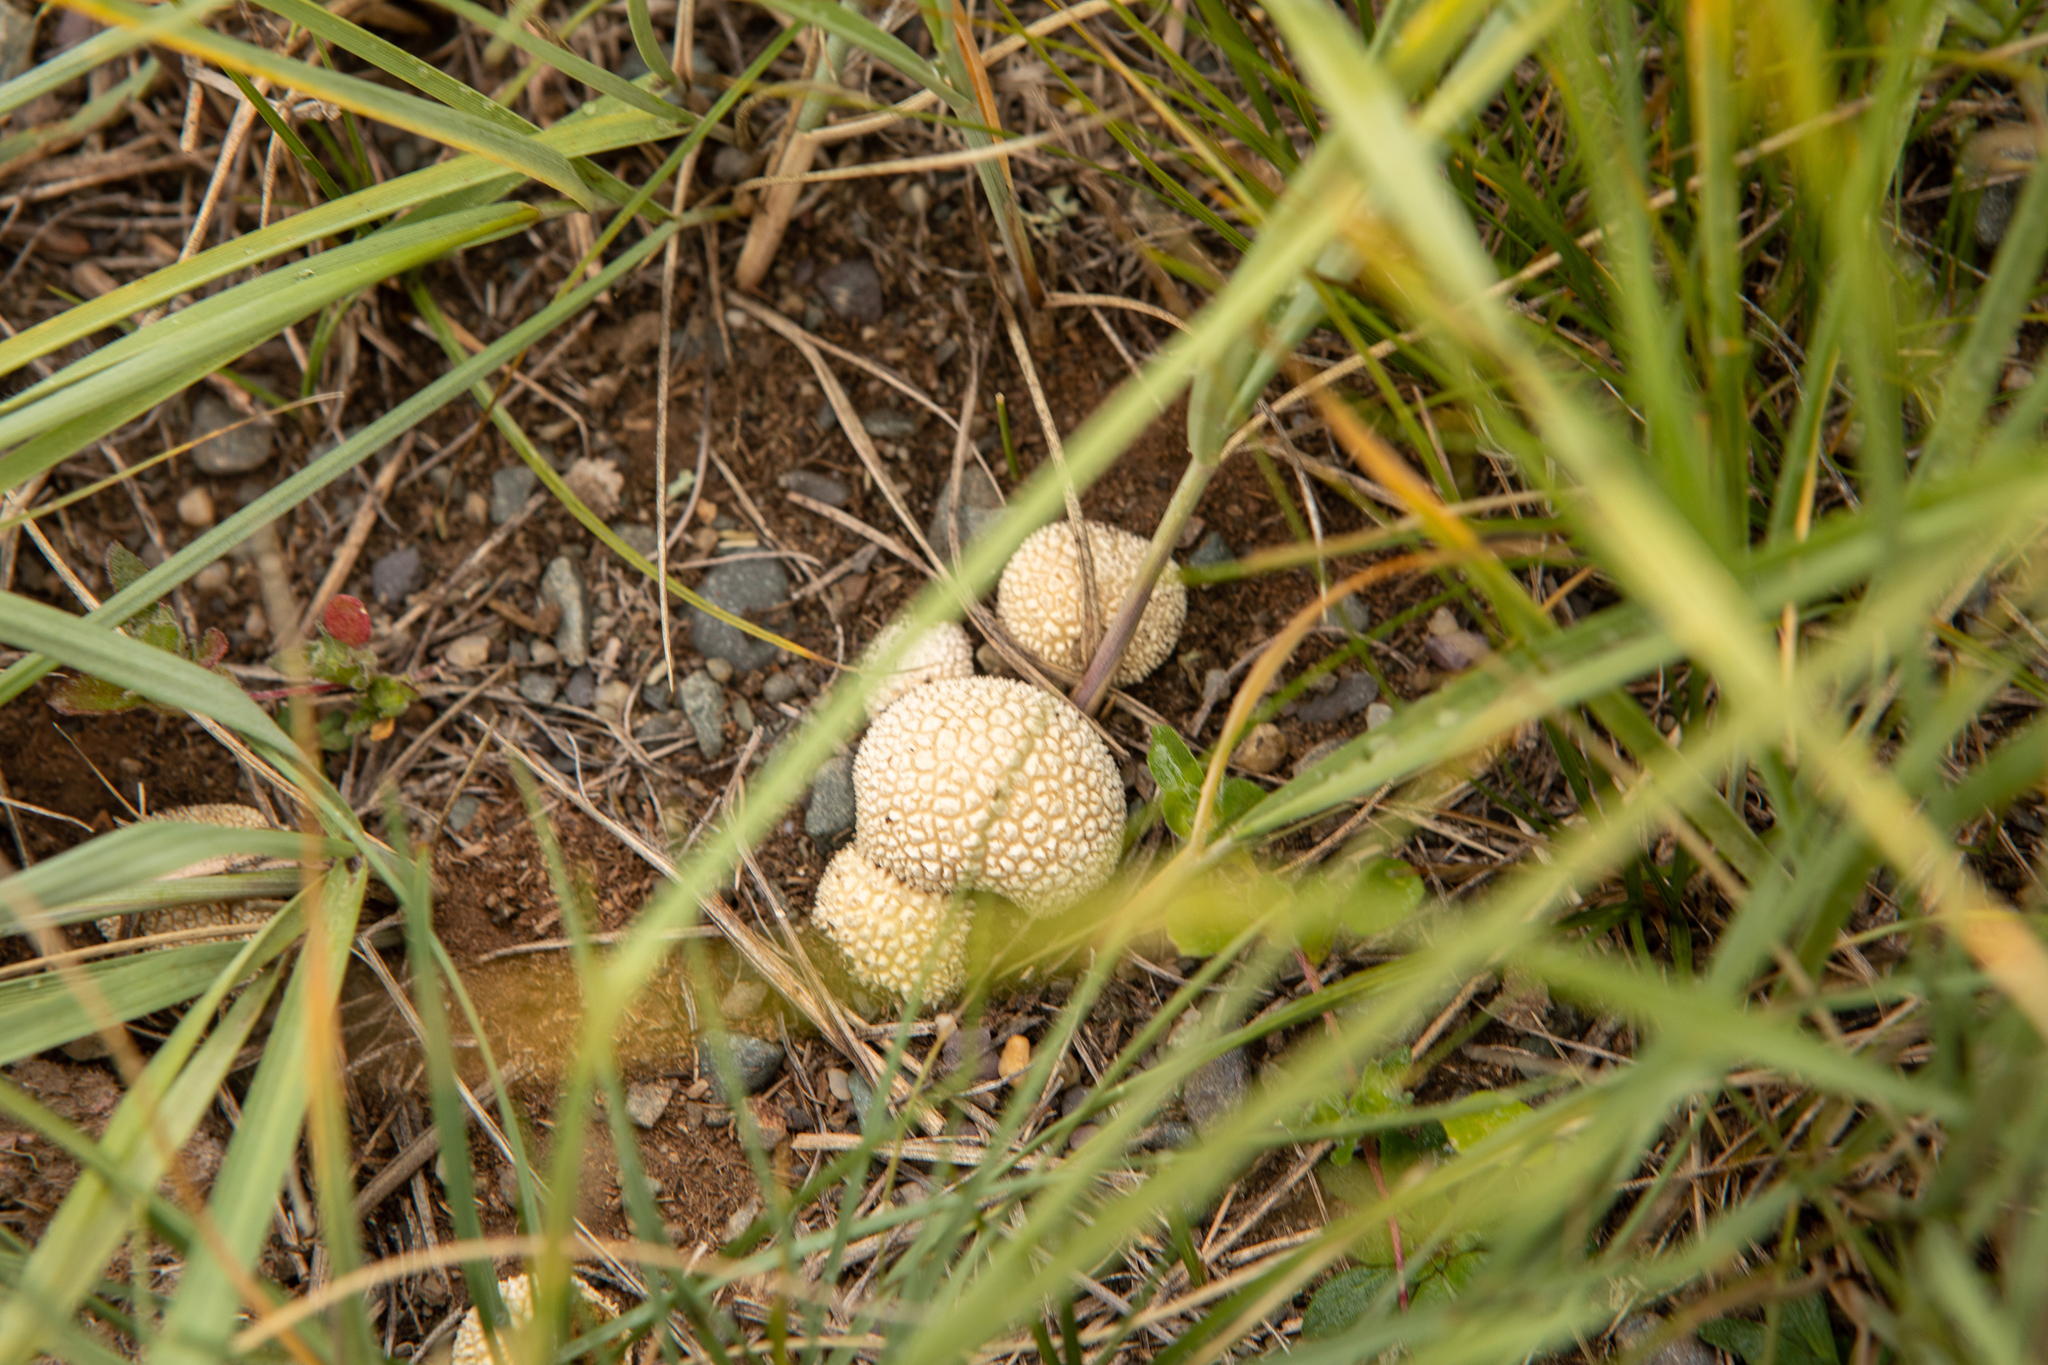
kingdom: Fungi
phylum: Basidiomycota
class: Agaricomycetes
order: Agaricales
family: Agaricaceae
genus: Lycoperdon
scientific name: Lycoperdon marginatum
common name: Peeling puffball
